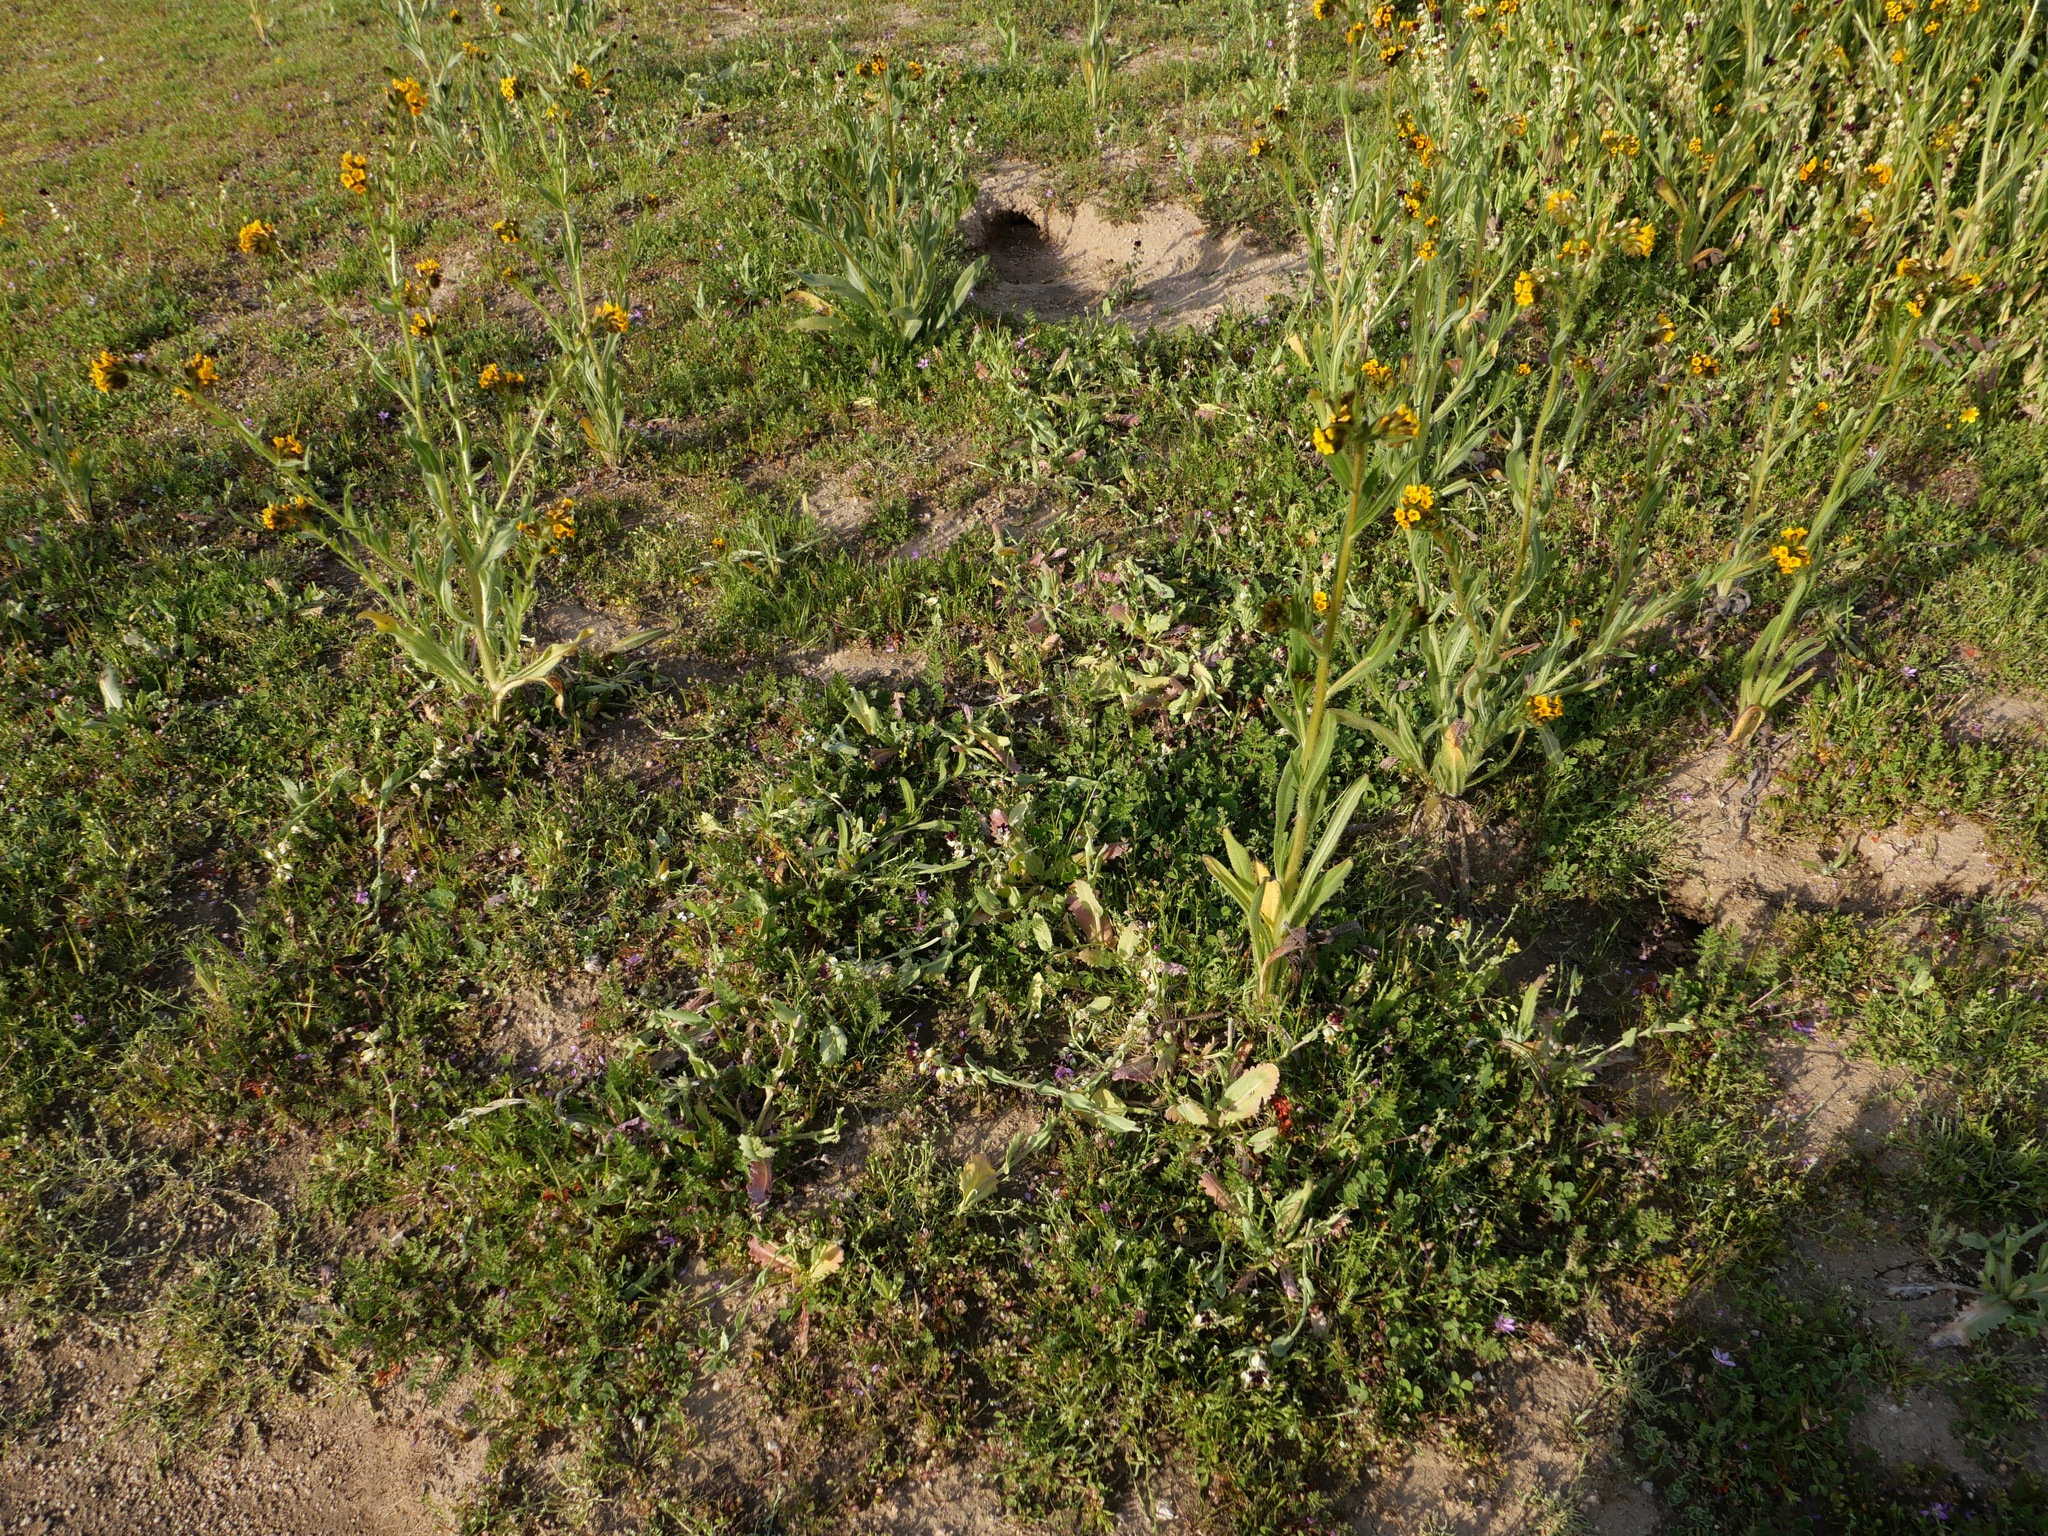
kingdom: Plantae
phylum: Tracheophyta
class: Magnoliopsida
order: Brassicales
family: Brassicaceae
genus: Streptanthus
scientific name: Streptanthus californicus
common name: California-jewel-flower
